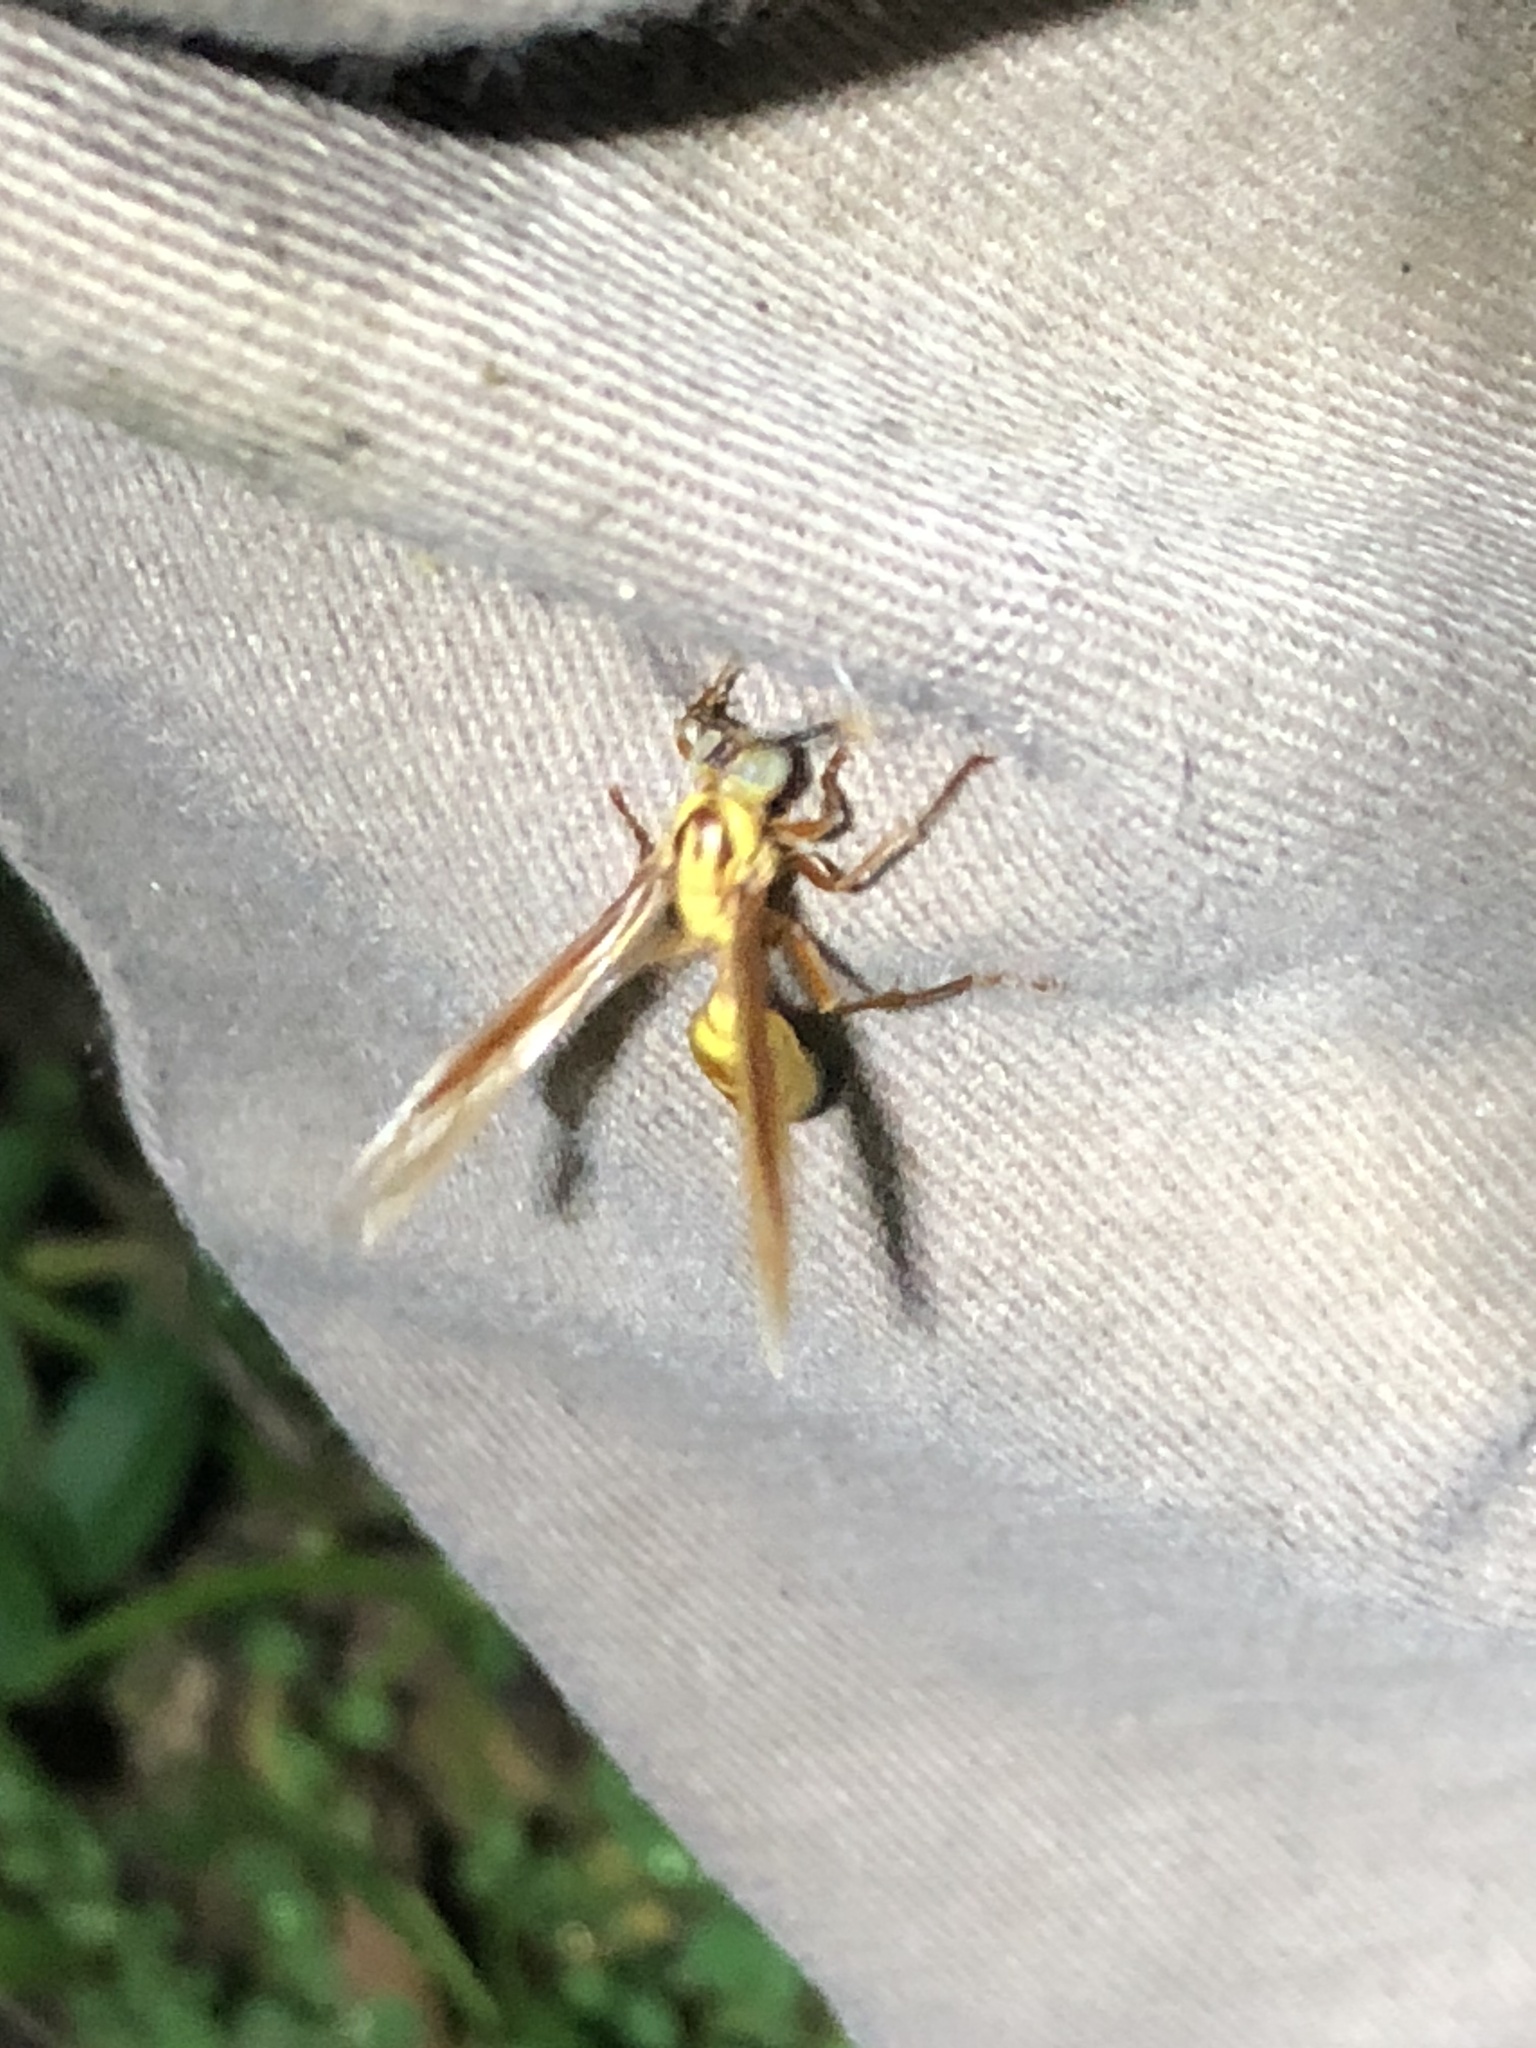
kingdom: Animalia
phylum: Arthropoda
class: Insecta
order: Hymenoptera
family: Vespidae
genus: Apoica
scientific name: Apoica flavissima
